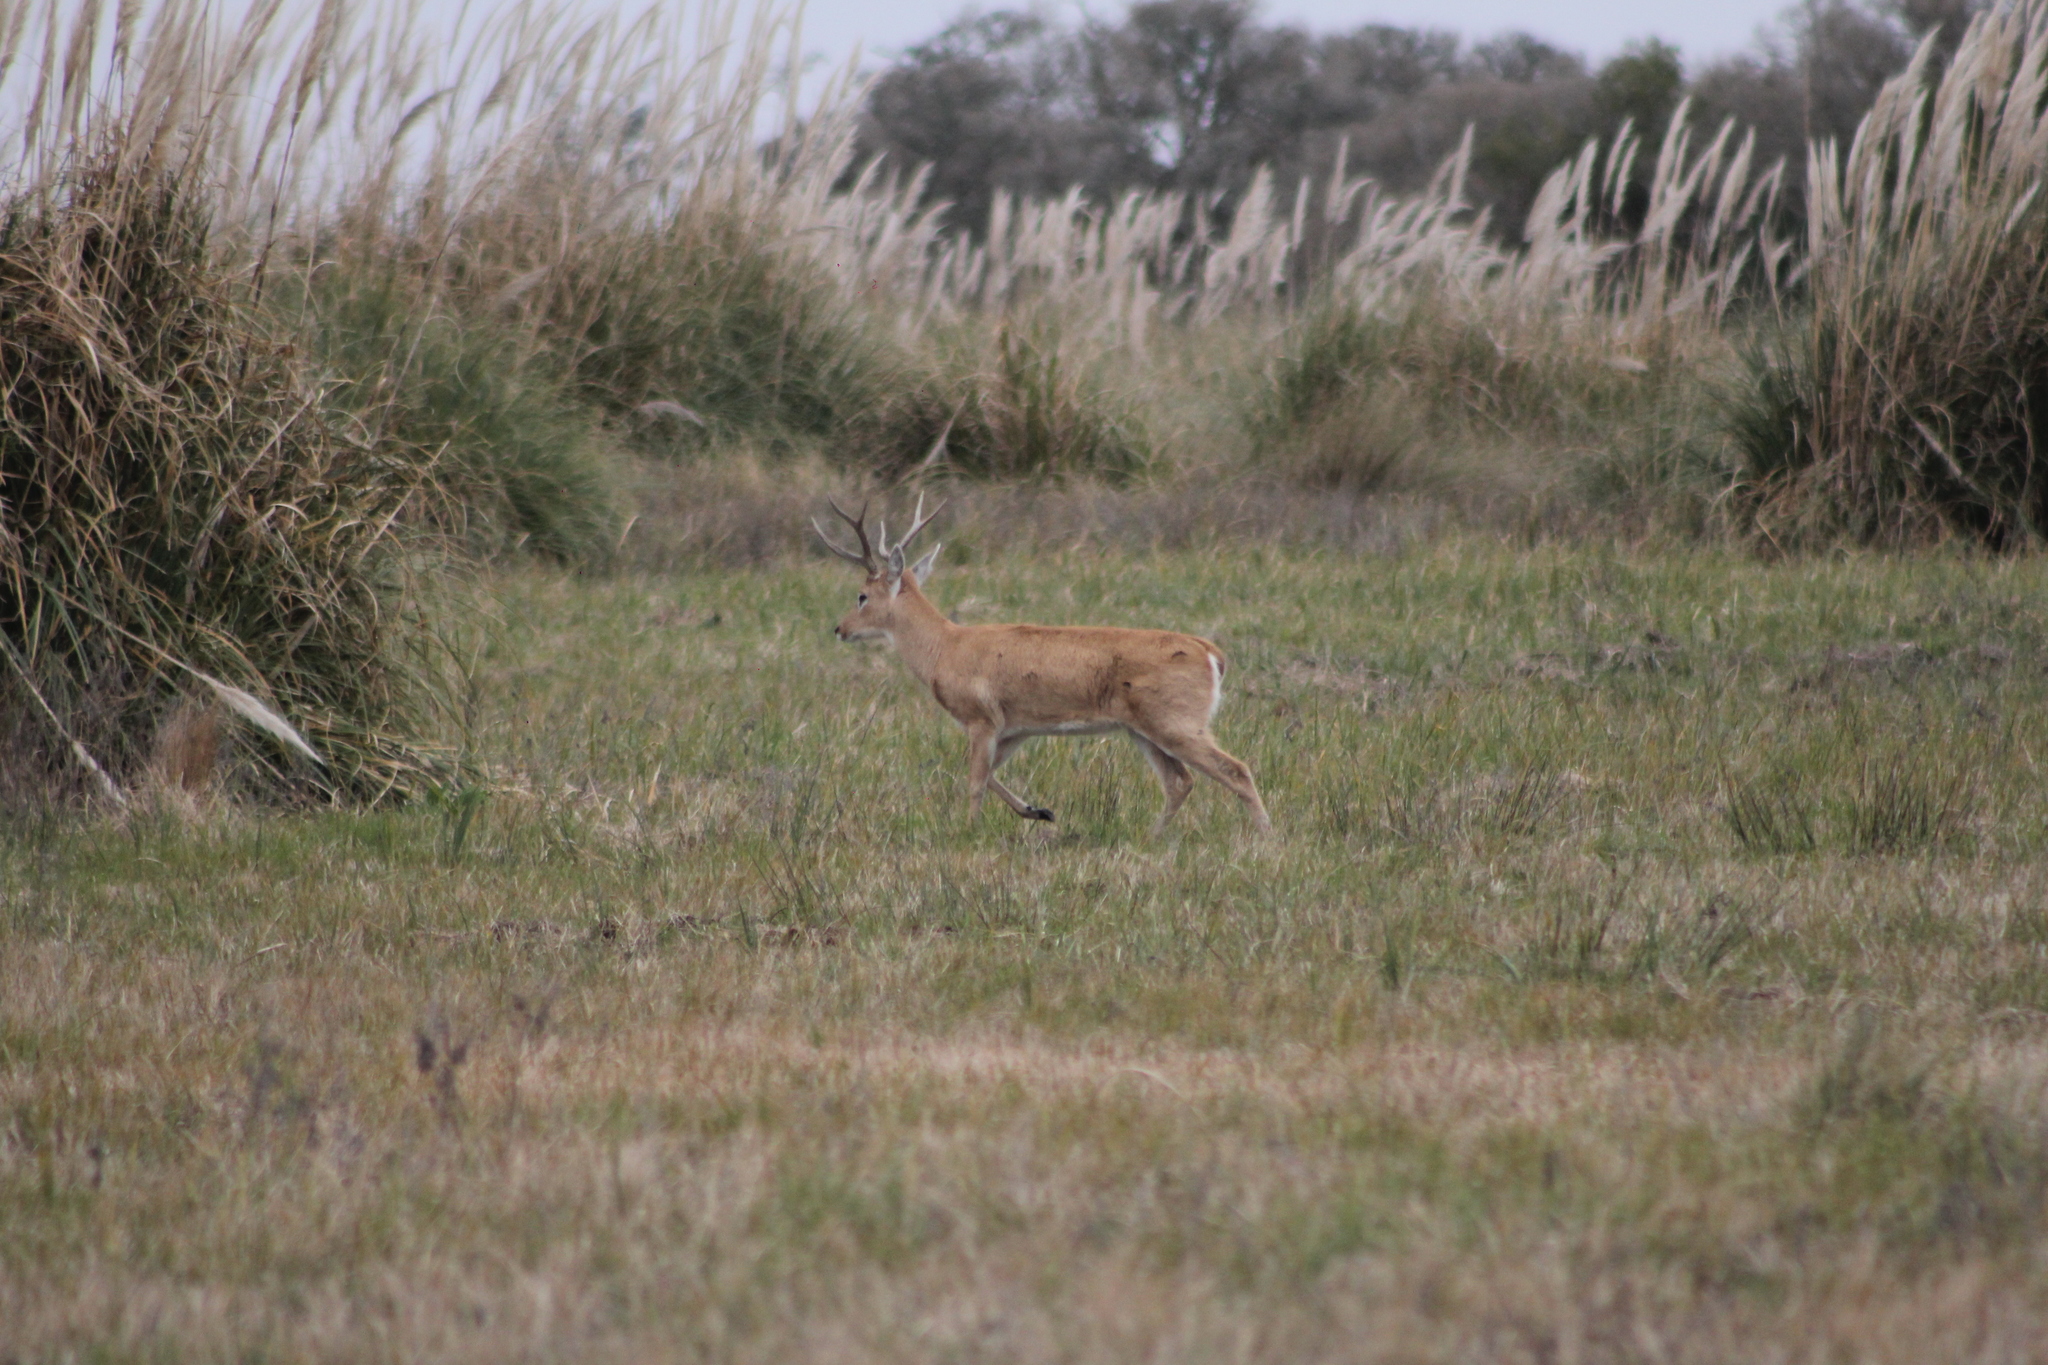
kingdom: Animalia
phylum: Chordata
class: Mammalia
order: Artiodactyla
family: Cervidae
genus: Ozotoceros
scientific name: Ozotoceros bezoarticus
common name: Pampas deer
